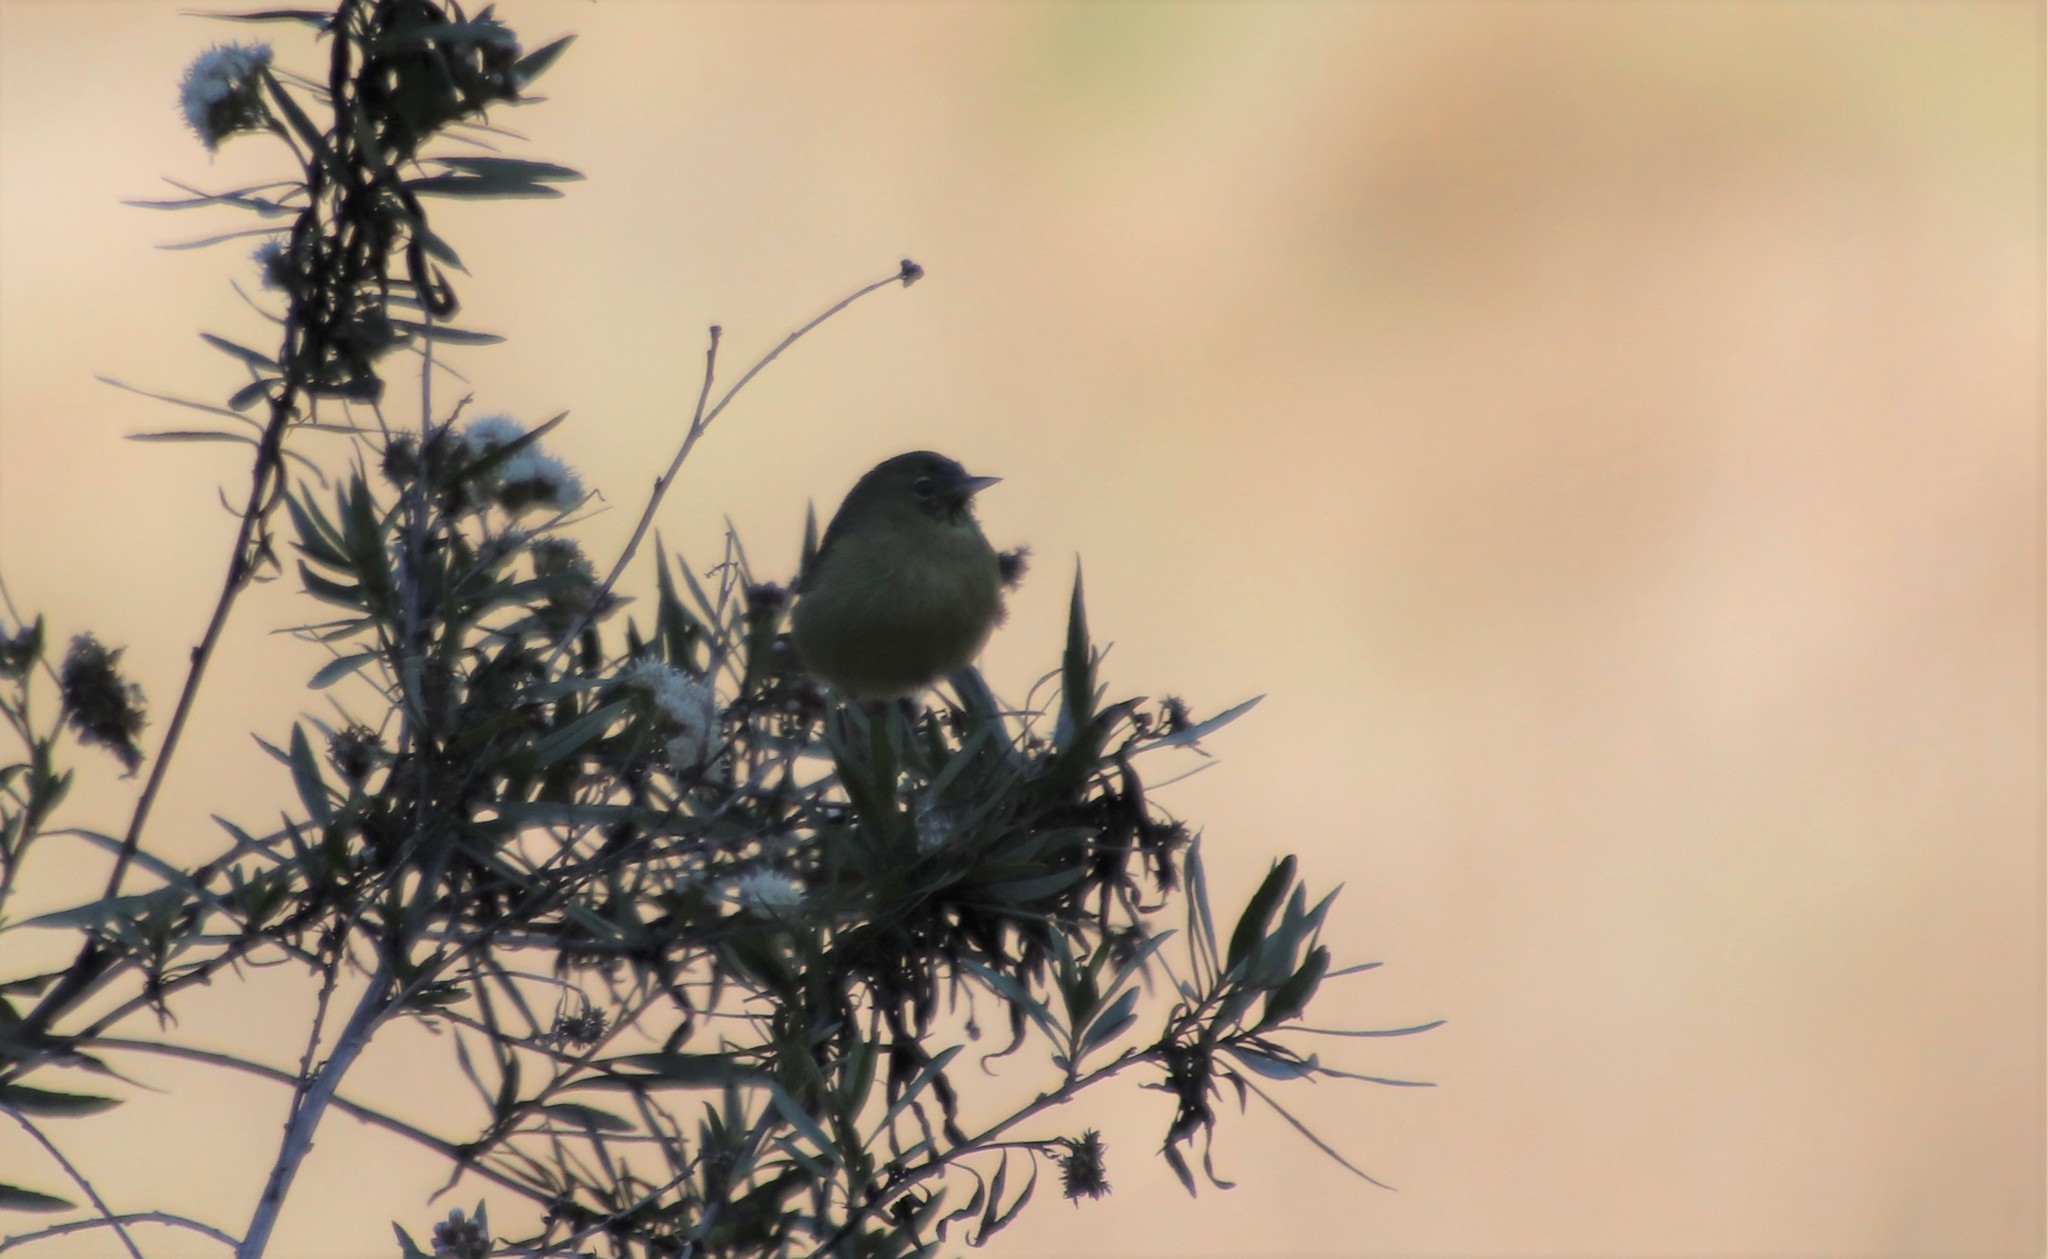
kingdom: Animalia
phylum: Chordata
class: Aves
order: Passeriformes
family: Parulidae
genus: Leiothlypis
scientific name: Leiothlypis celata
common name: Orange-crowned warbler
